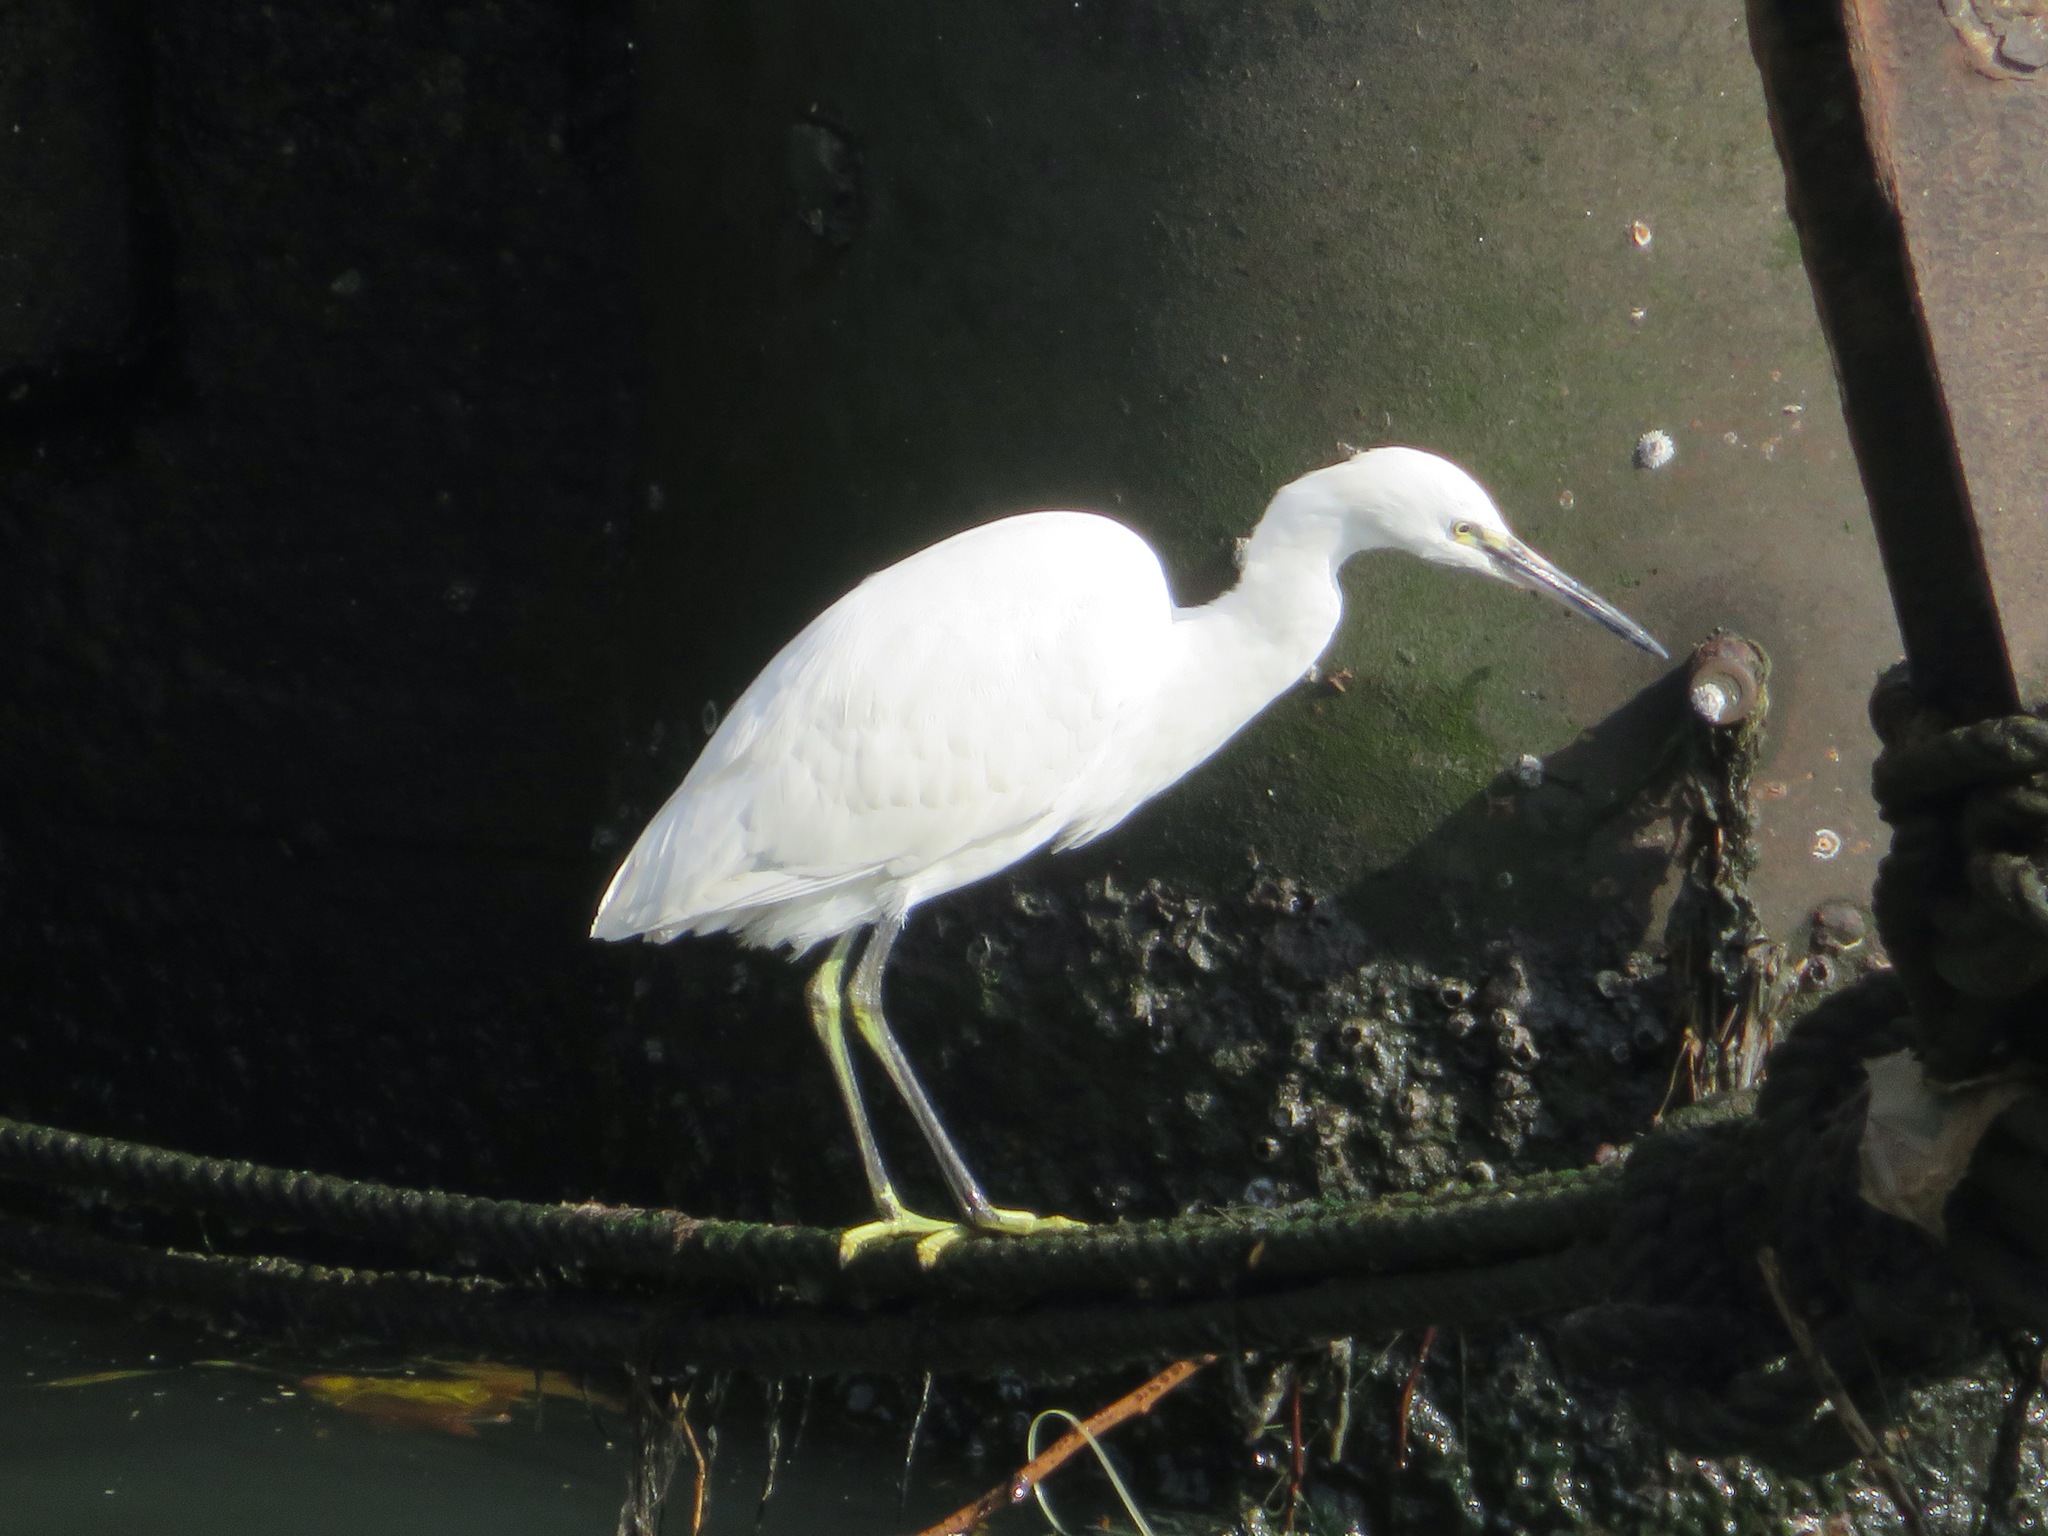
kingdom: Animalia
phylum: Chordata
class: Aves
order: Pelecaniformes
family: Ardeidae
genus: Egretta
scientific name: Egretta garzetta
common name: Little egret
